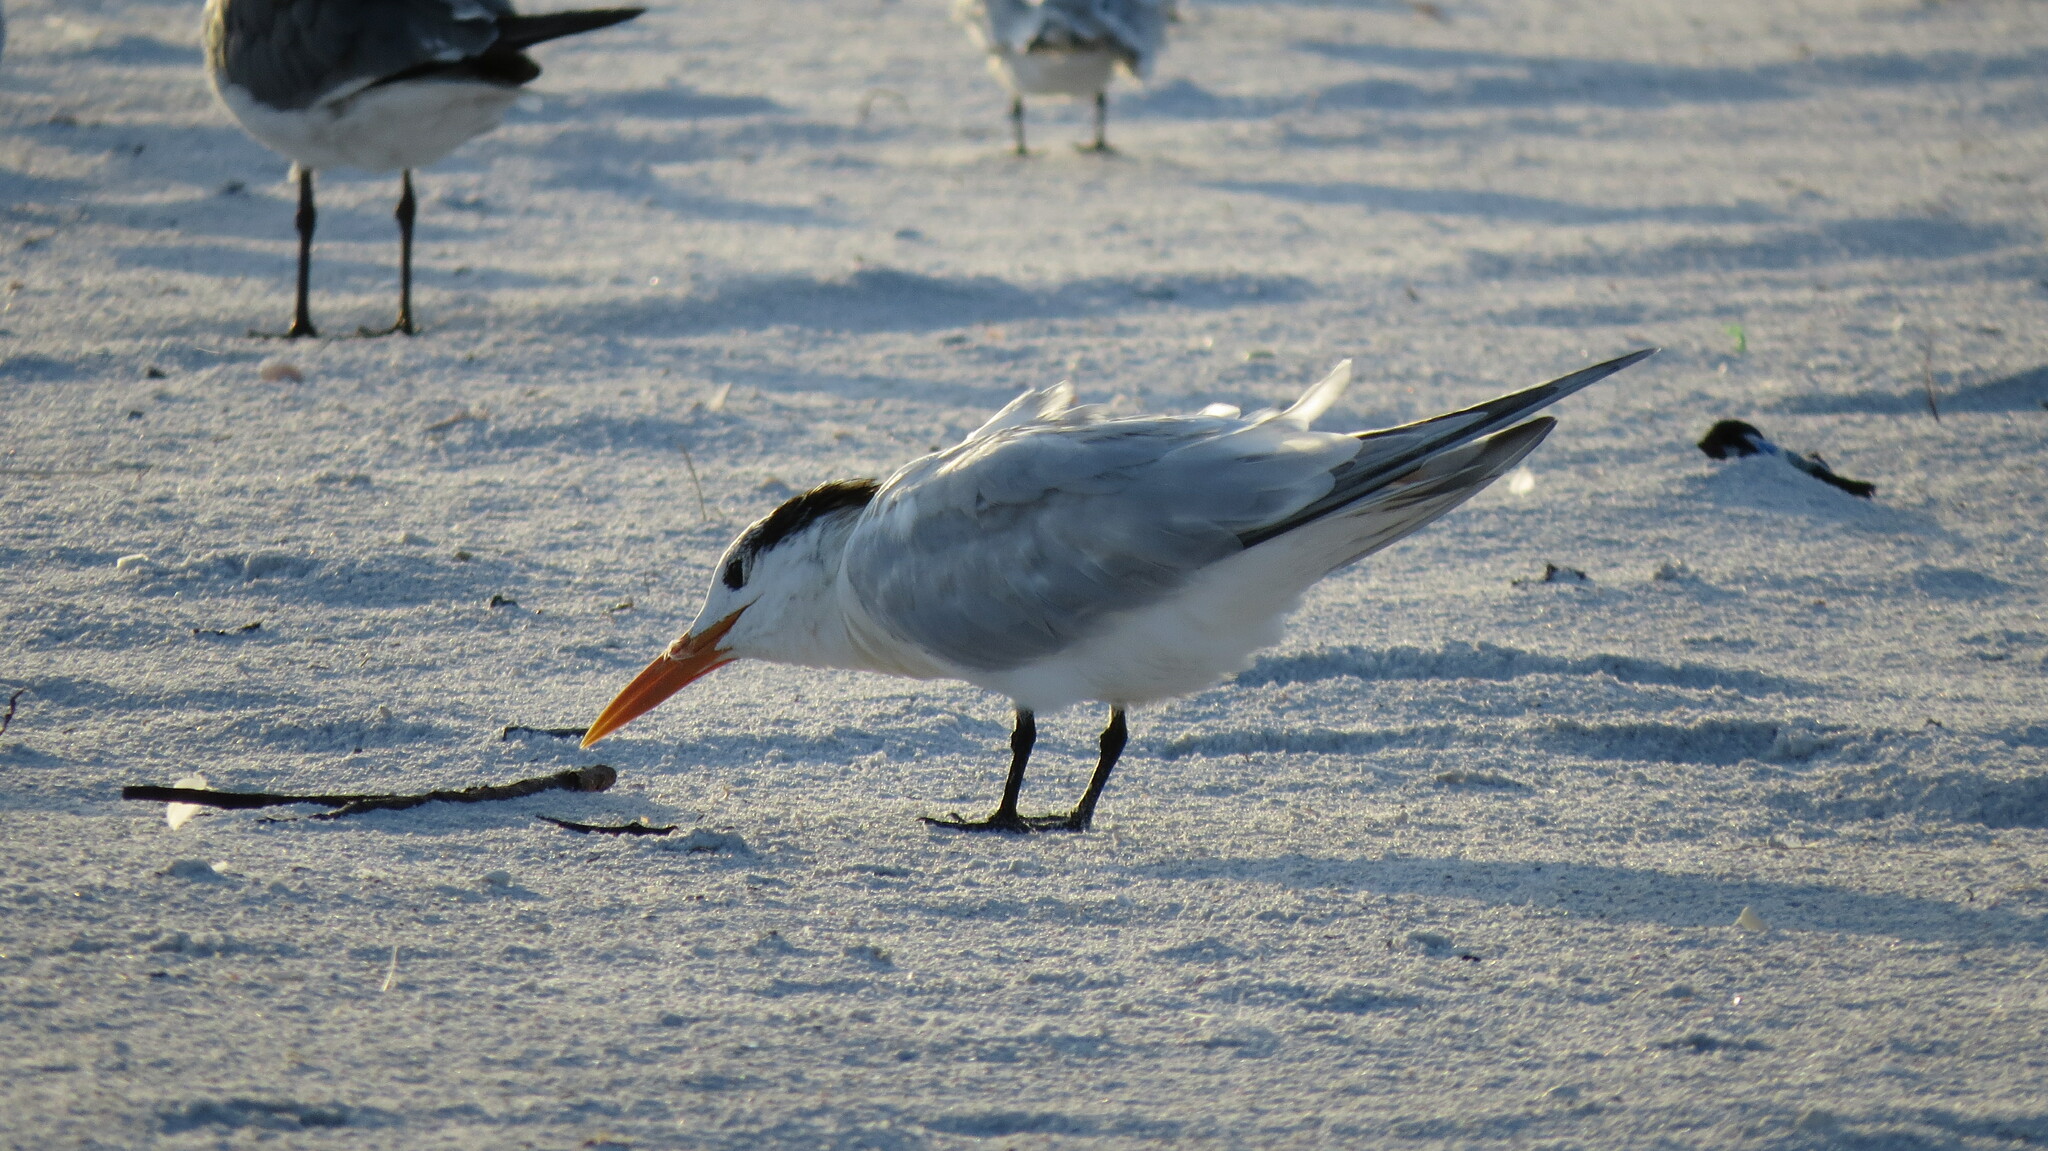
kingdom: Animalia
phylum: Chordata
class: Aves
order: Charadriiformes
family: Laridae
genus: Thalasseus
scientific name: Thalasseus maximus
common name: Royal tern
